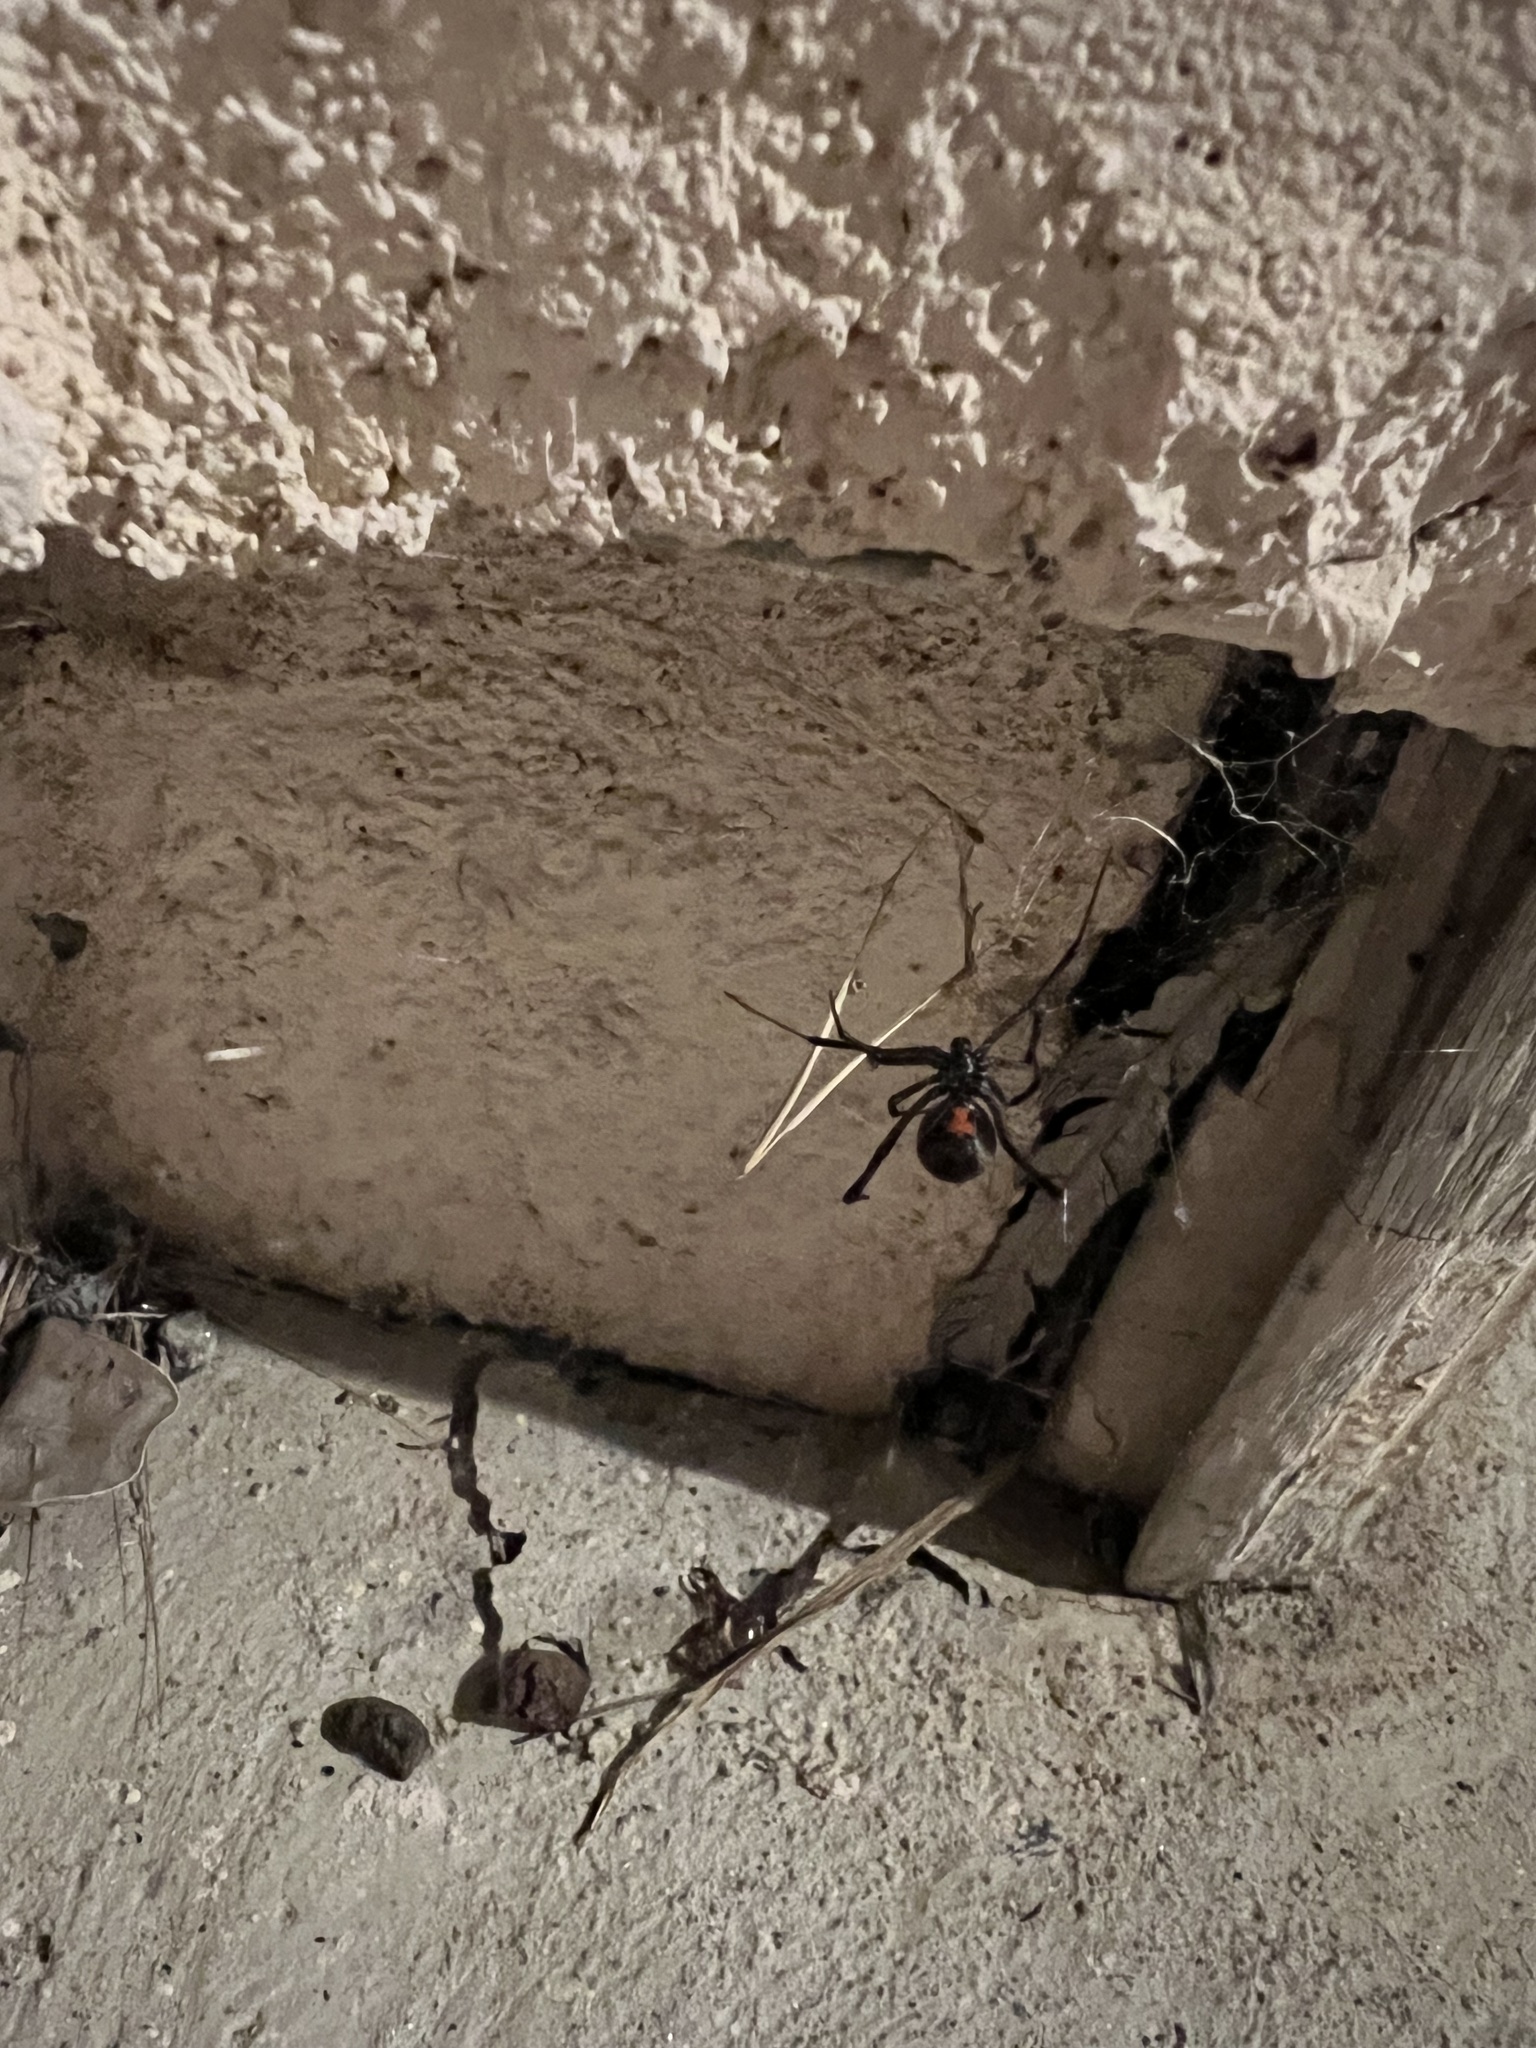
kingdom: Animalia
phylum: Arthropoda
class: Arachnida
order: Araneae
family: Theridiidae
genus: Latrodectus
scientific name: Latrodectus hesperus
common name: Western black widow
